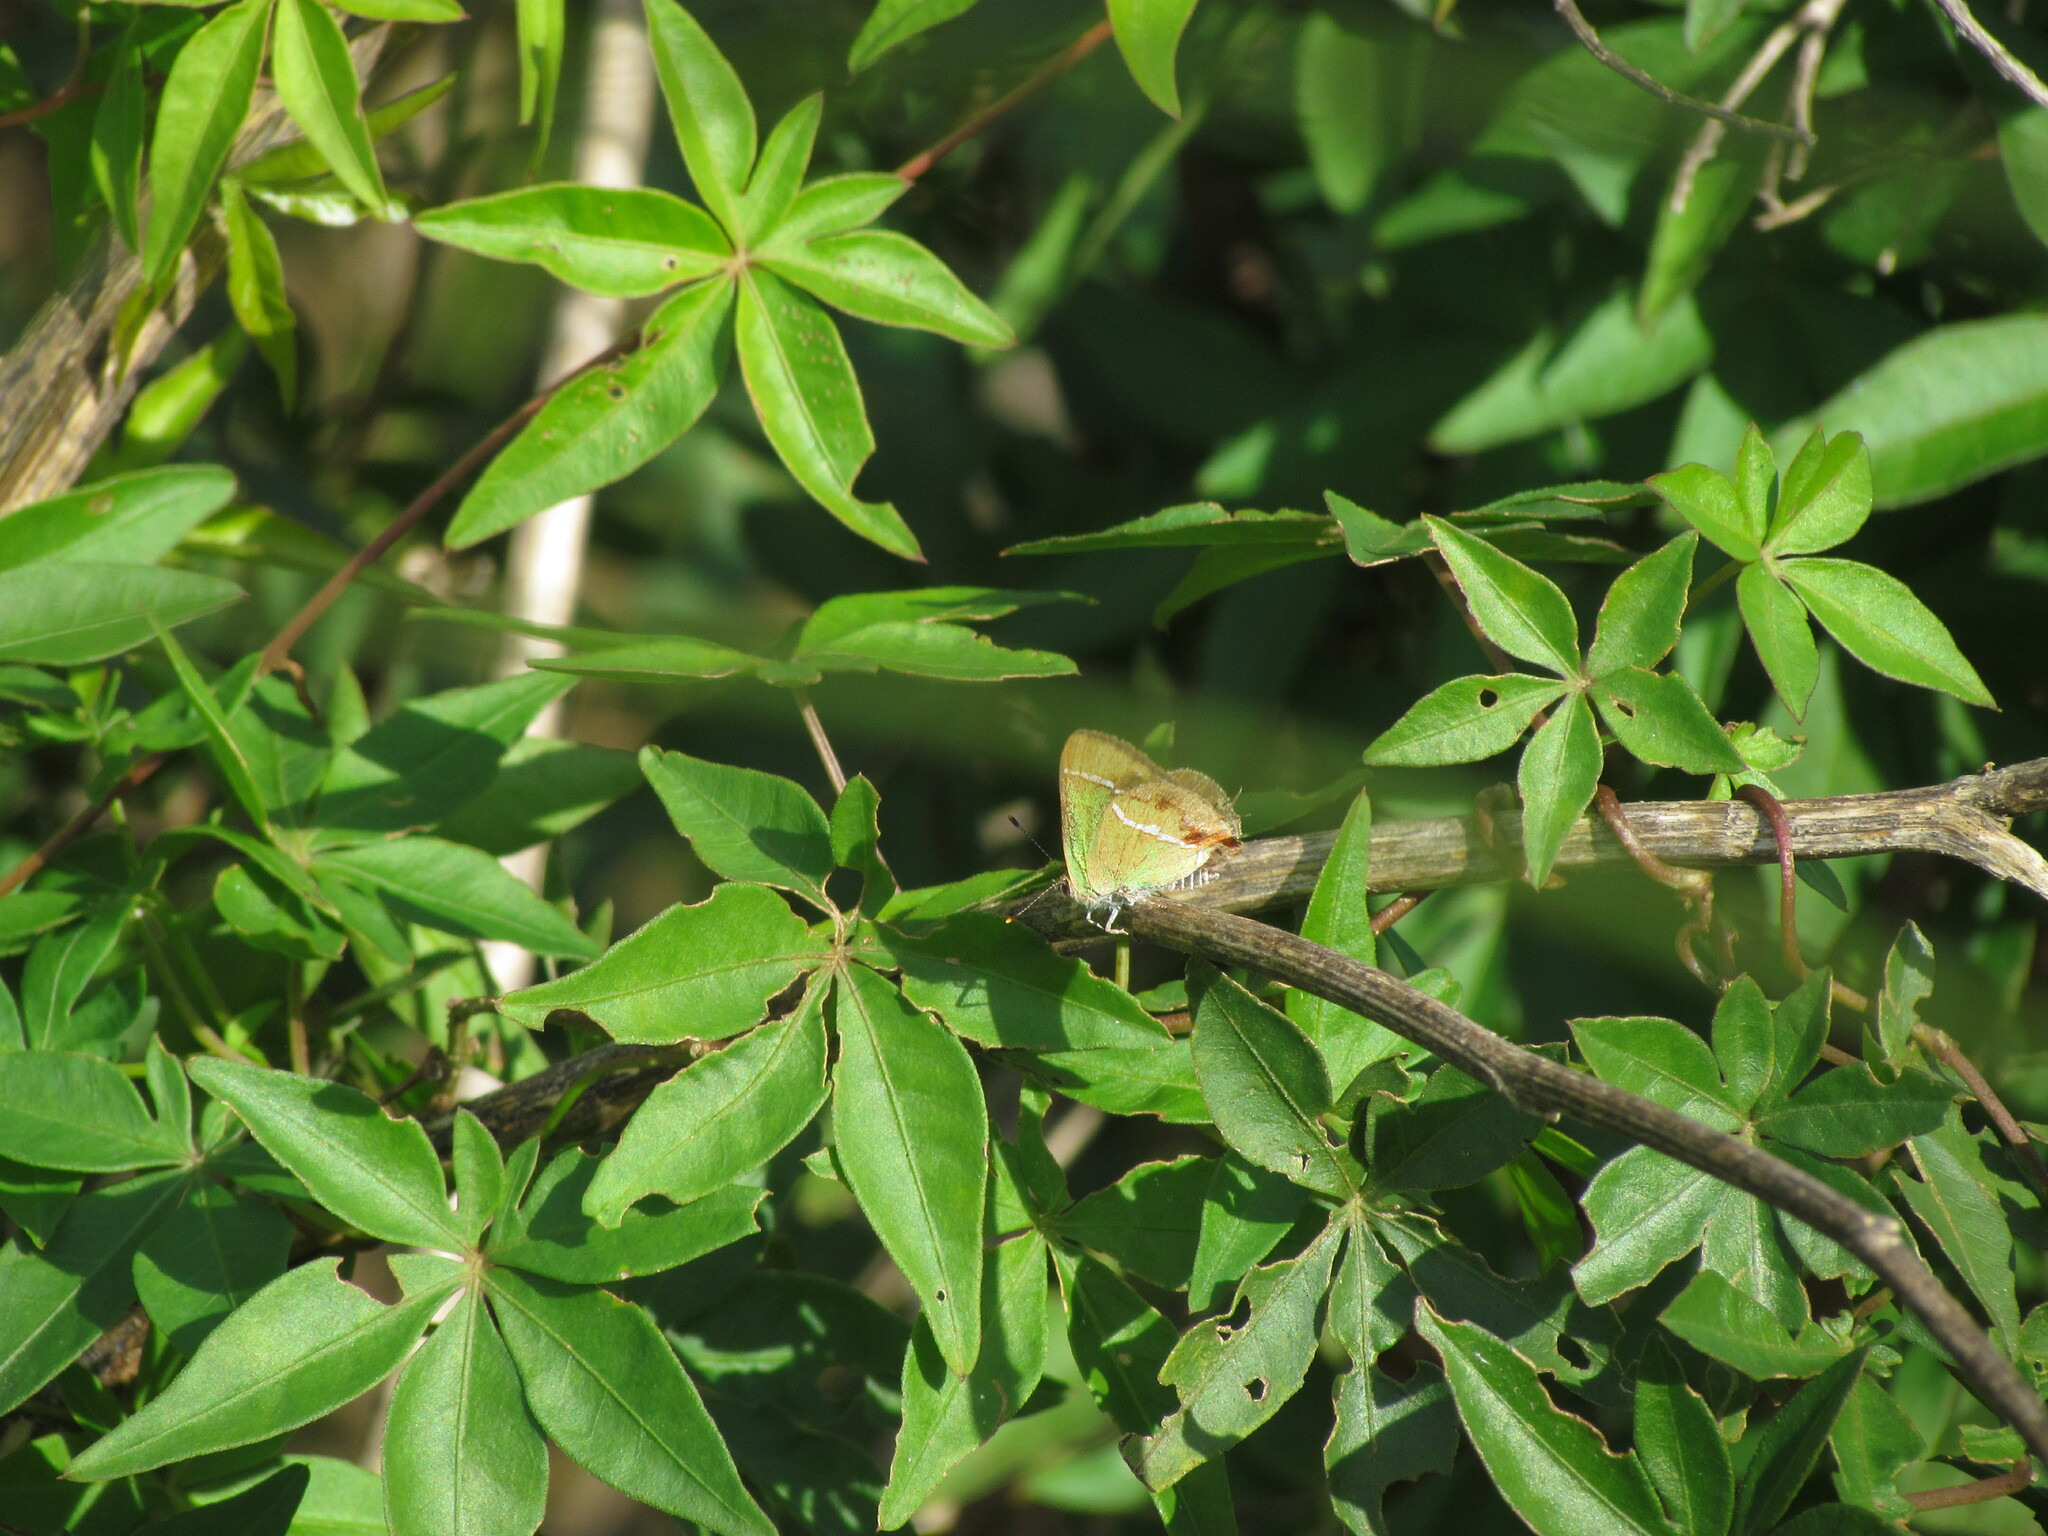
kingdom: Animalia
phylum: Arthropoda
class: Insecta
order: Lepidoptera
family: Lycaenidae
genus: Chlorostrymon
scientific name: Chlorostrymon simaethis
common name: Silver-banded hairstreak
